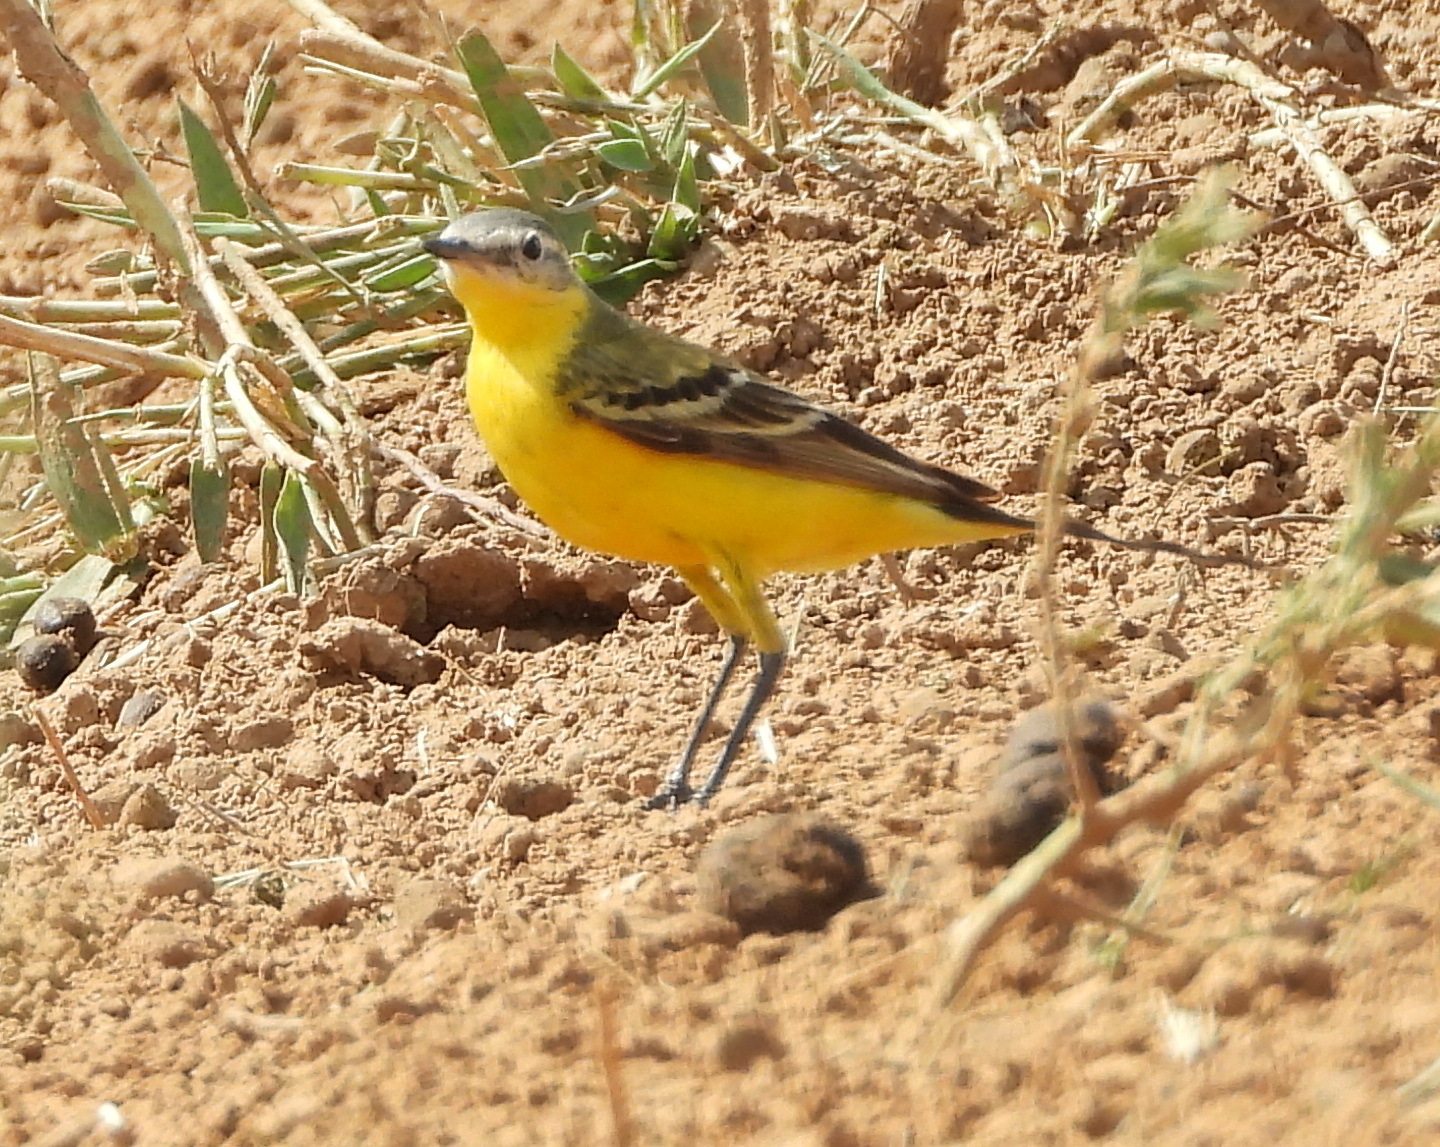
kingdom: Animalia
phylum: Chordata
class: Aves
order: Passeriformes
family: Motacillidae
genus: Motacilla
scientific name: Motacilla flava
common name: Western yellow wagtail
